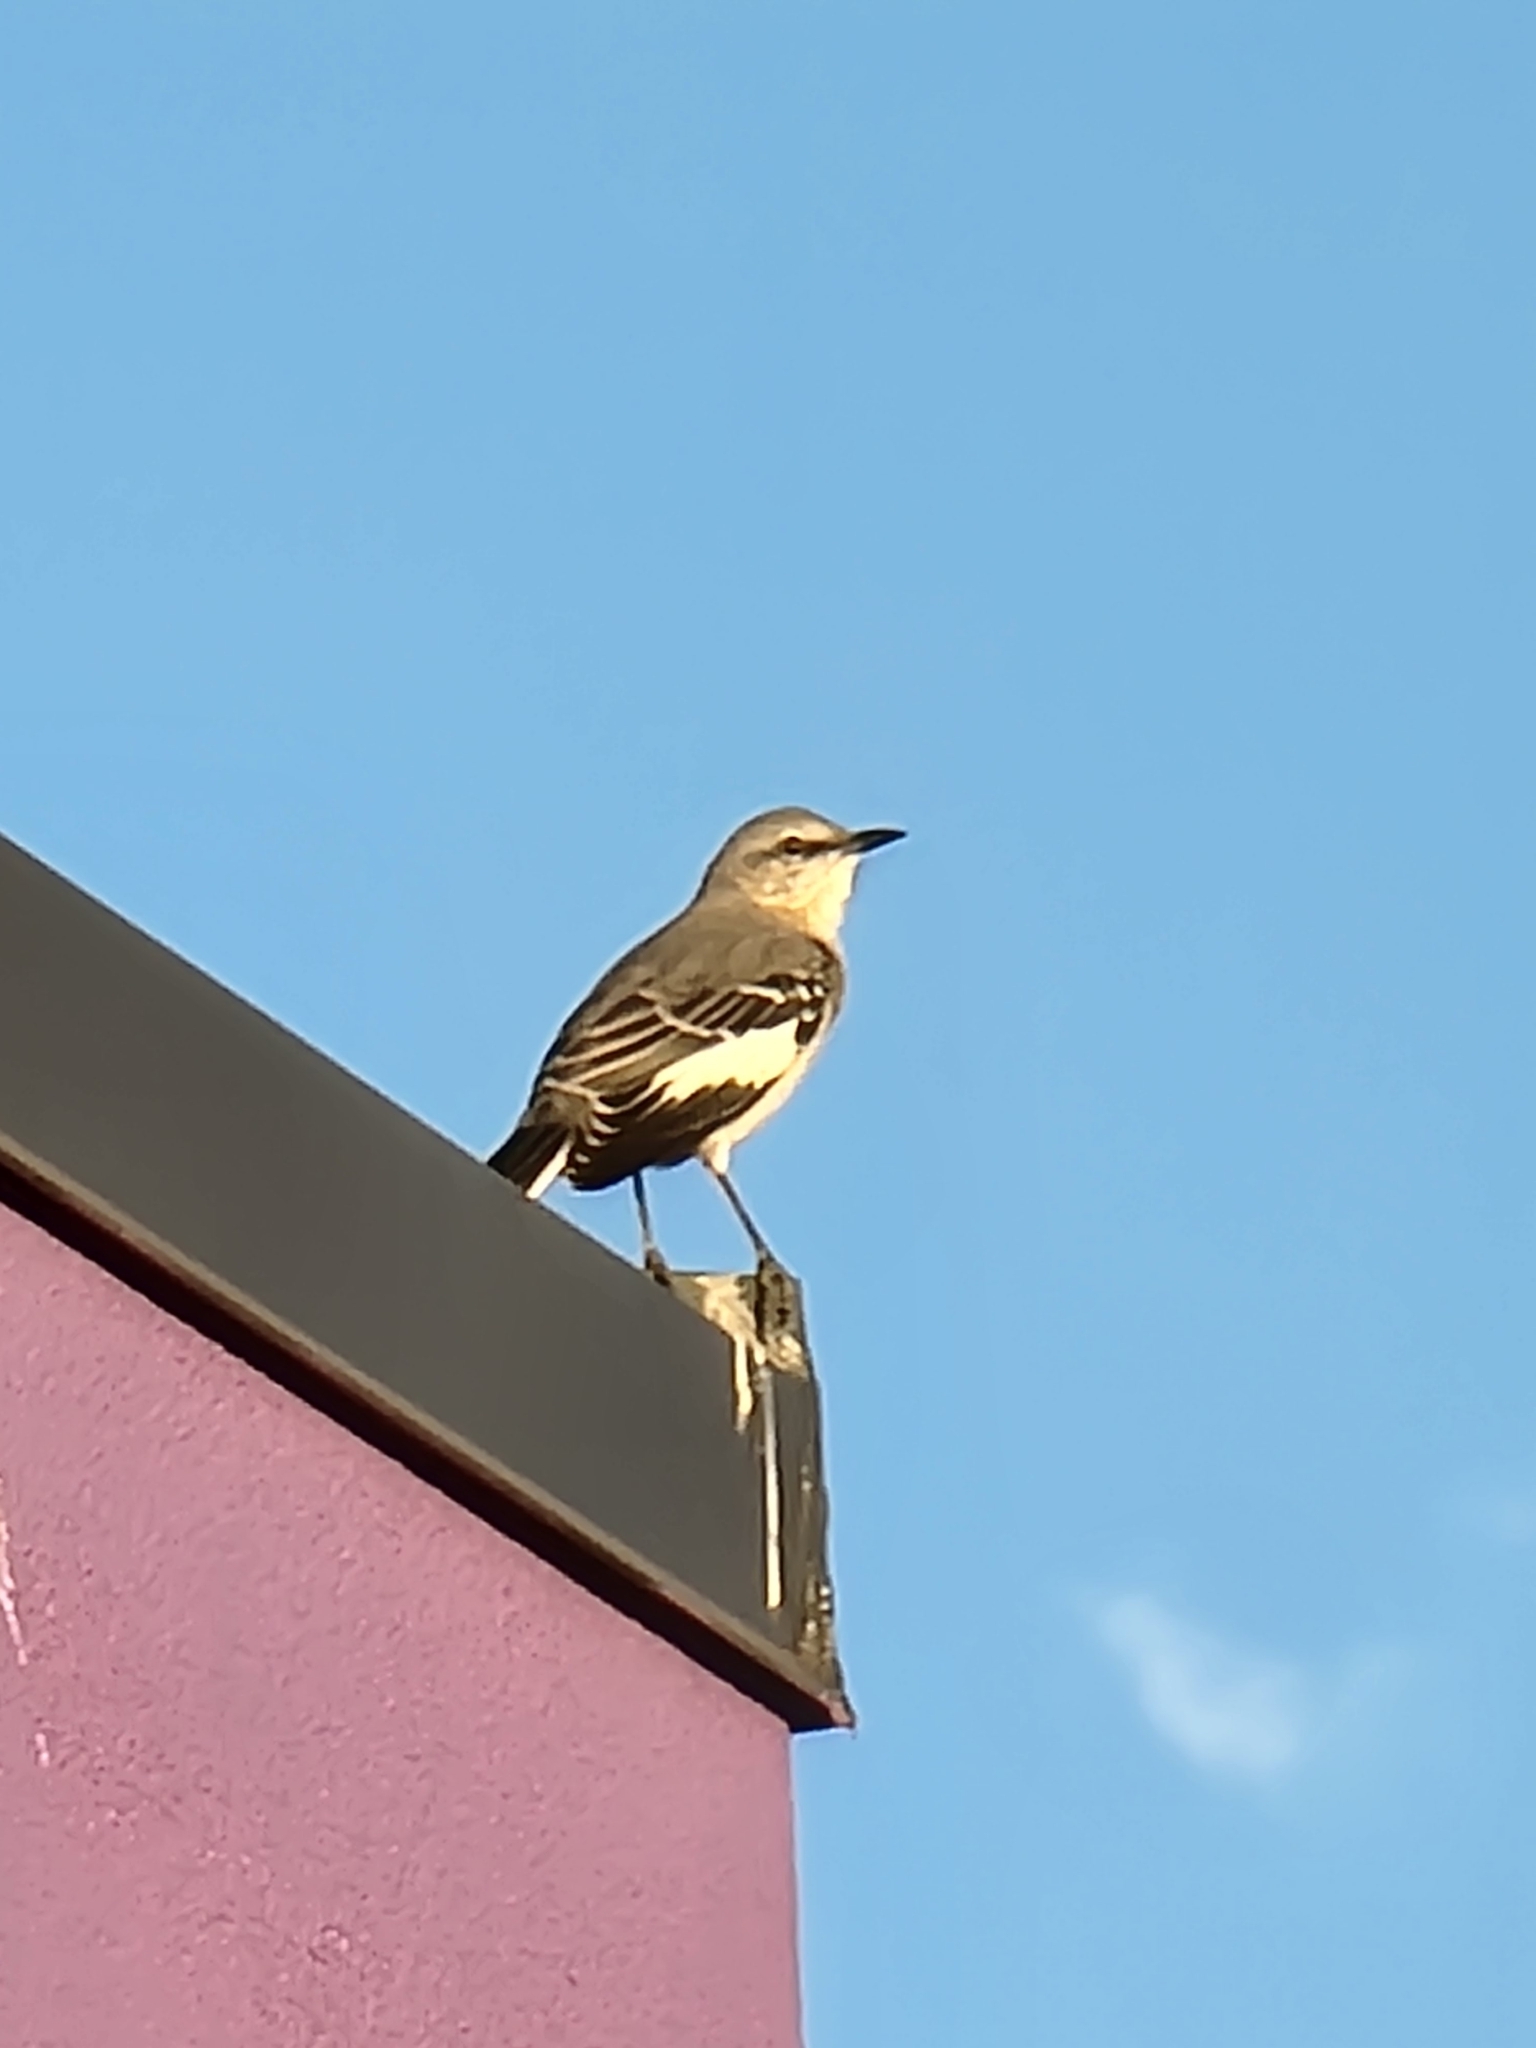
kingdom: Animalia
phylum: Chordata
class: Aves
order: Passeriformes
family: Mimidae
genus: Mimus
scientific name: Mimus polyglottos
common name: Northern mockingbird
